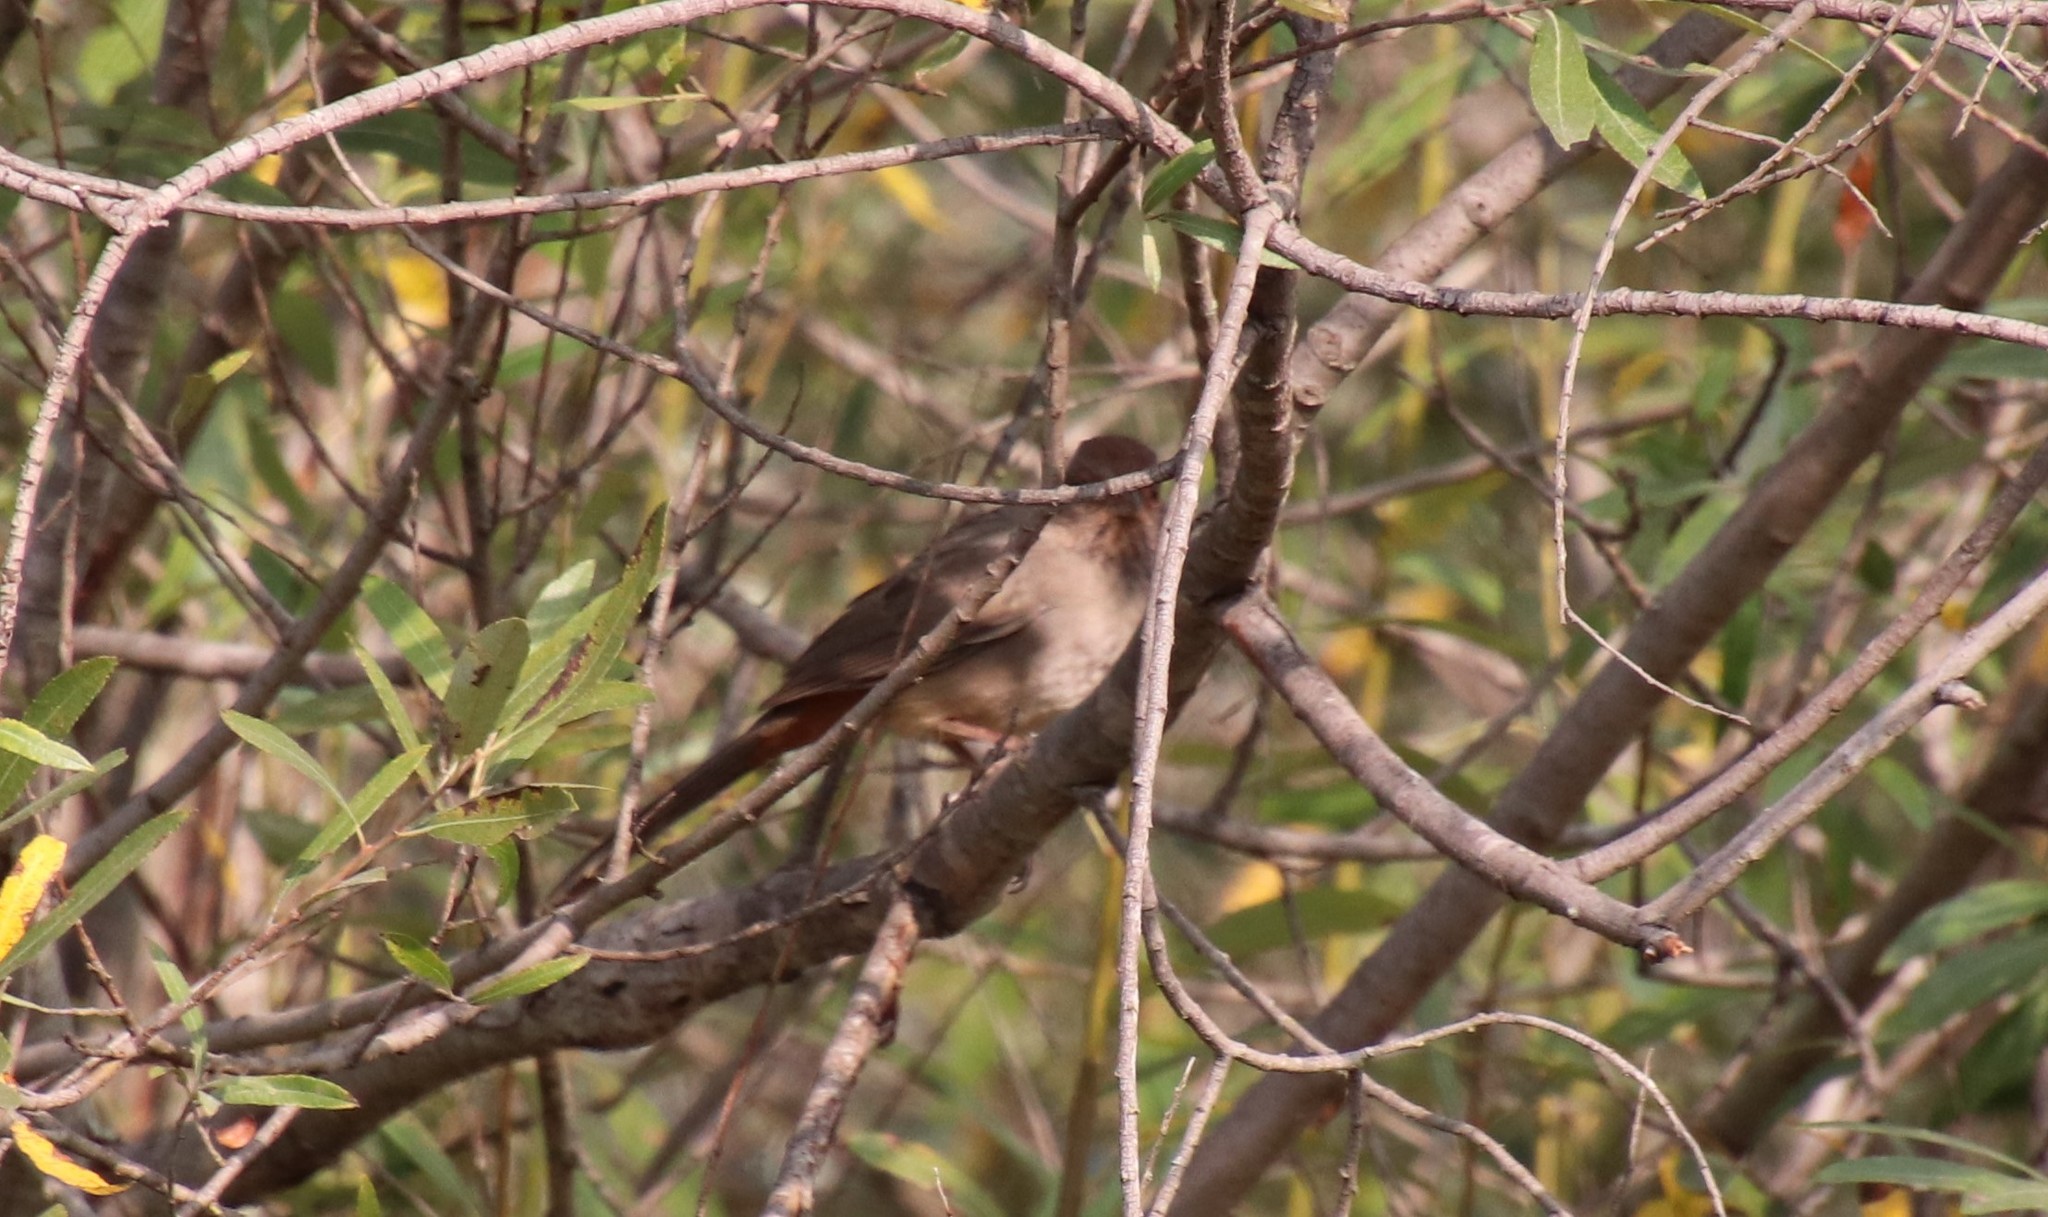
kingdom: Animalia
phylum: Chordata
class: Aves
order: Passeriformes
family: Passerellidae
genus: Melozone
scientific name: Melozone crissalis
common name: California towhee
